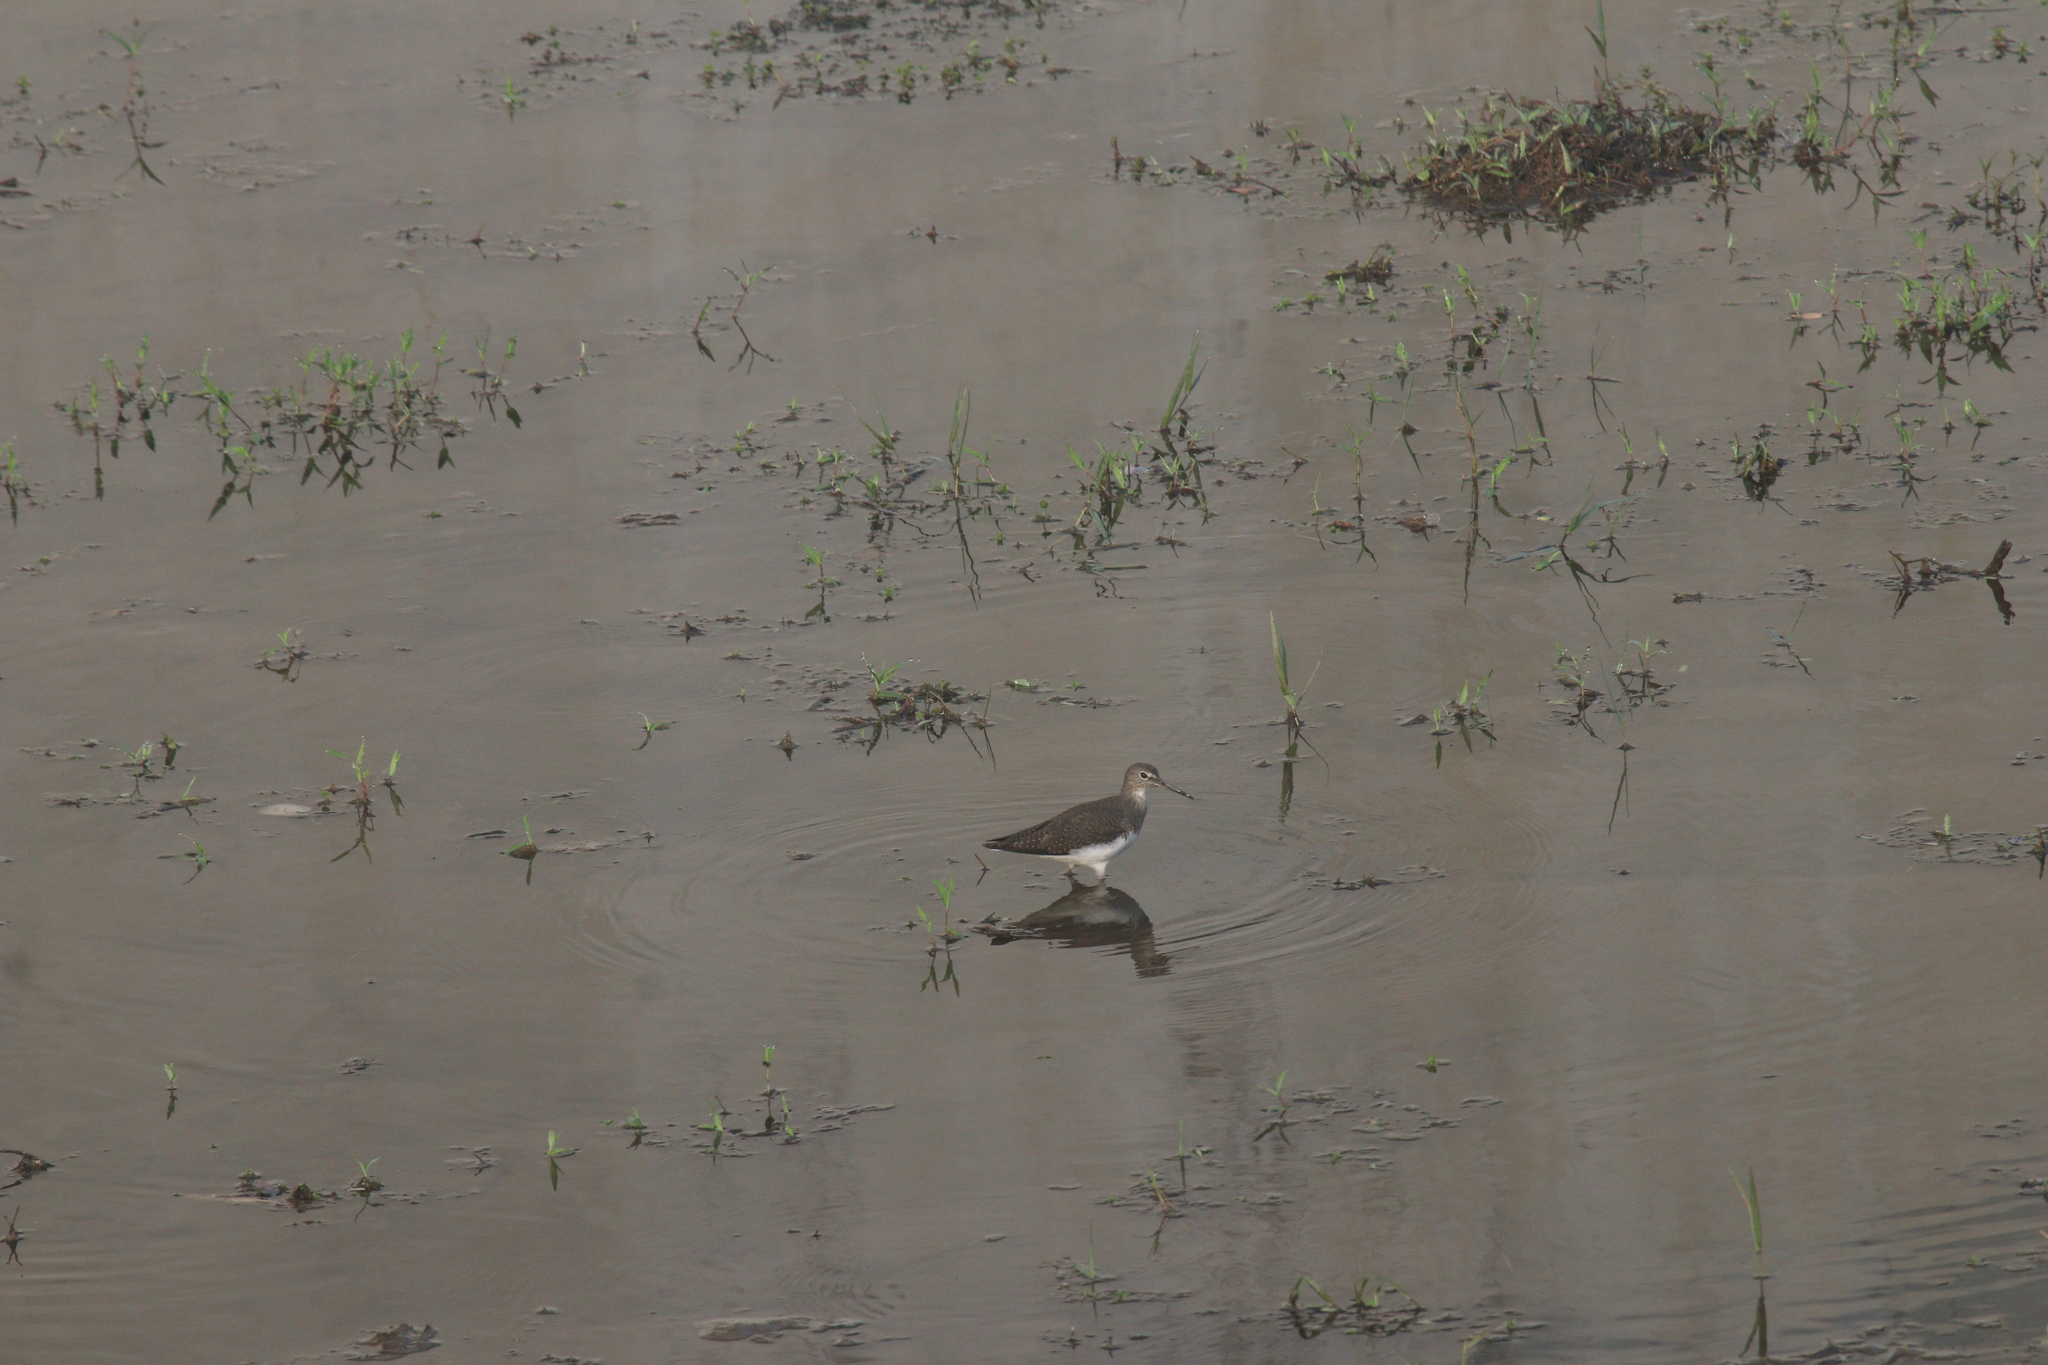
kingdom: Animalia
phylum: Chordata
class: Aves
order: Charadriiformes
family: Scolopacidae
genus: Tringa
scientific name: Tringa ochropus
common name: Green sandpiper
